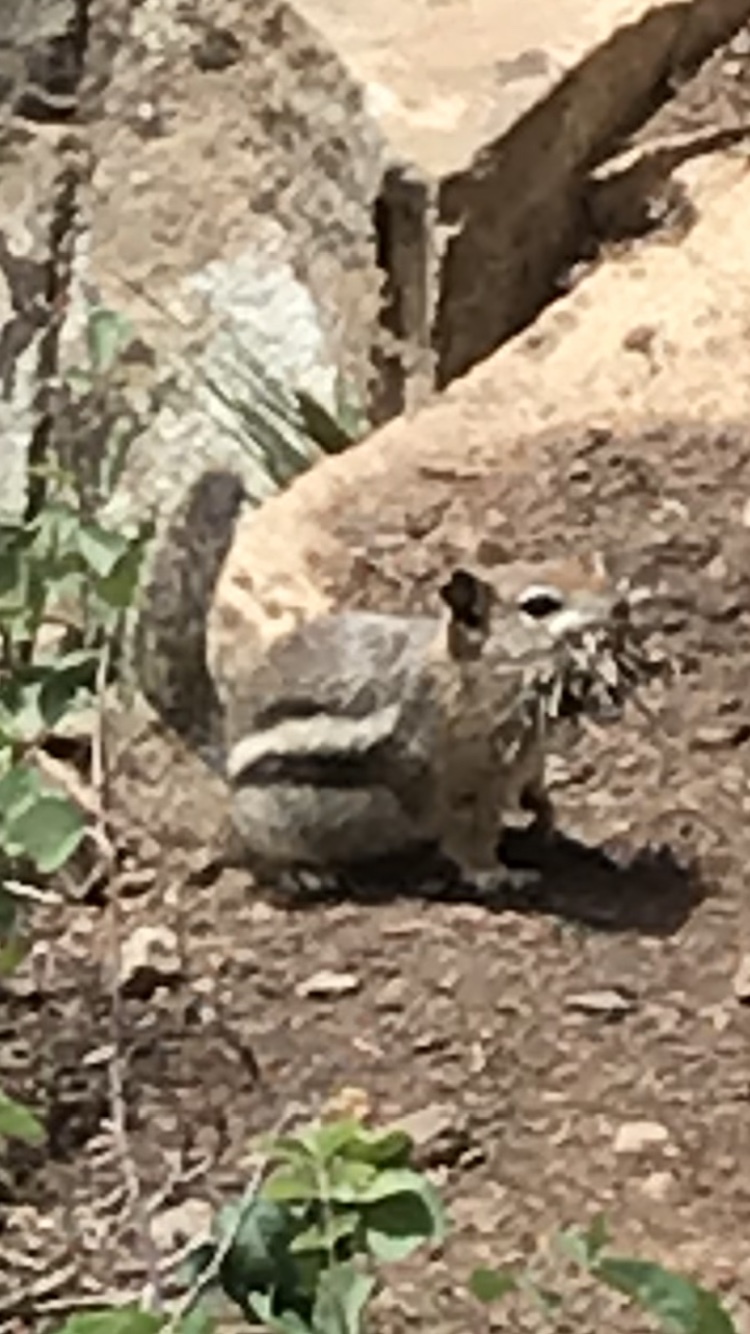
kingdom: Animalia
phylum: Chordata
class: Mammalia
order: Rodentia
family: Sciuridae
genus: Callospermophilus
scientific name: Callospermophilus lateralis
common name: Golden-mantled ground squirrel
